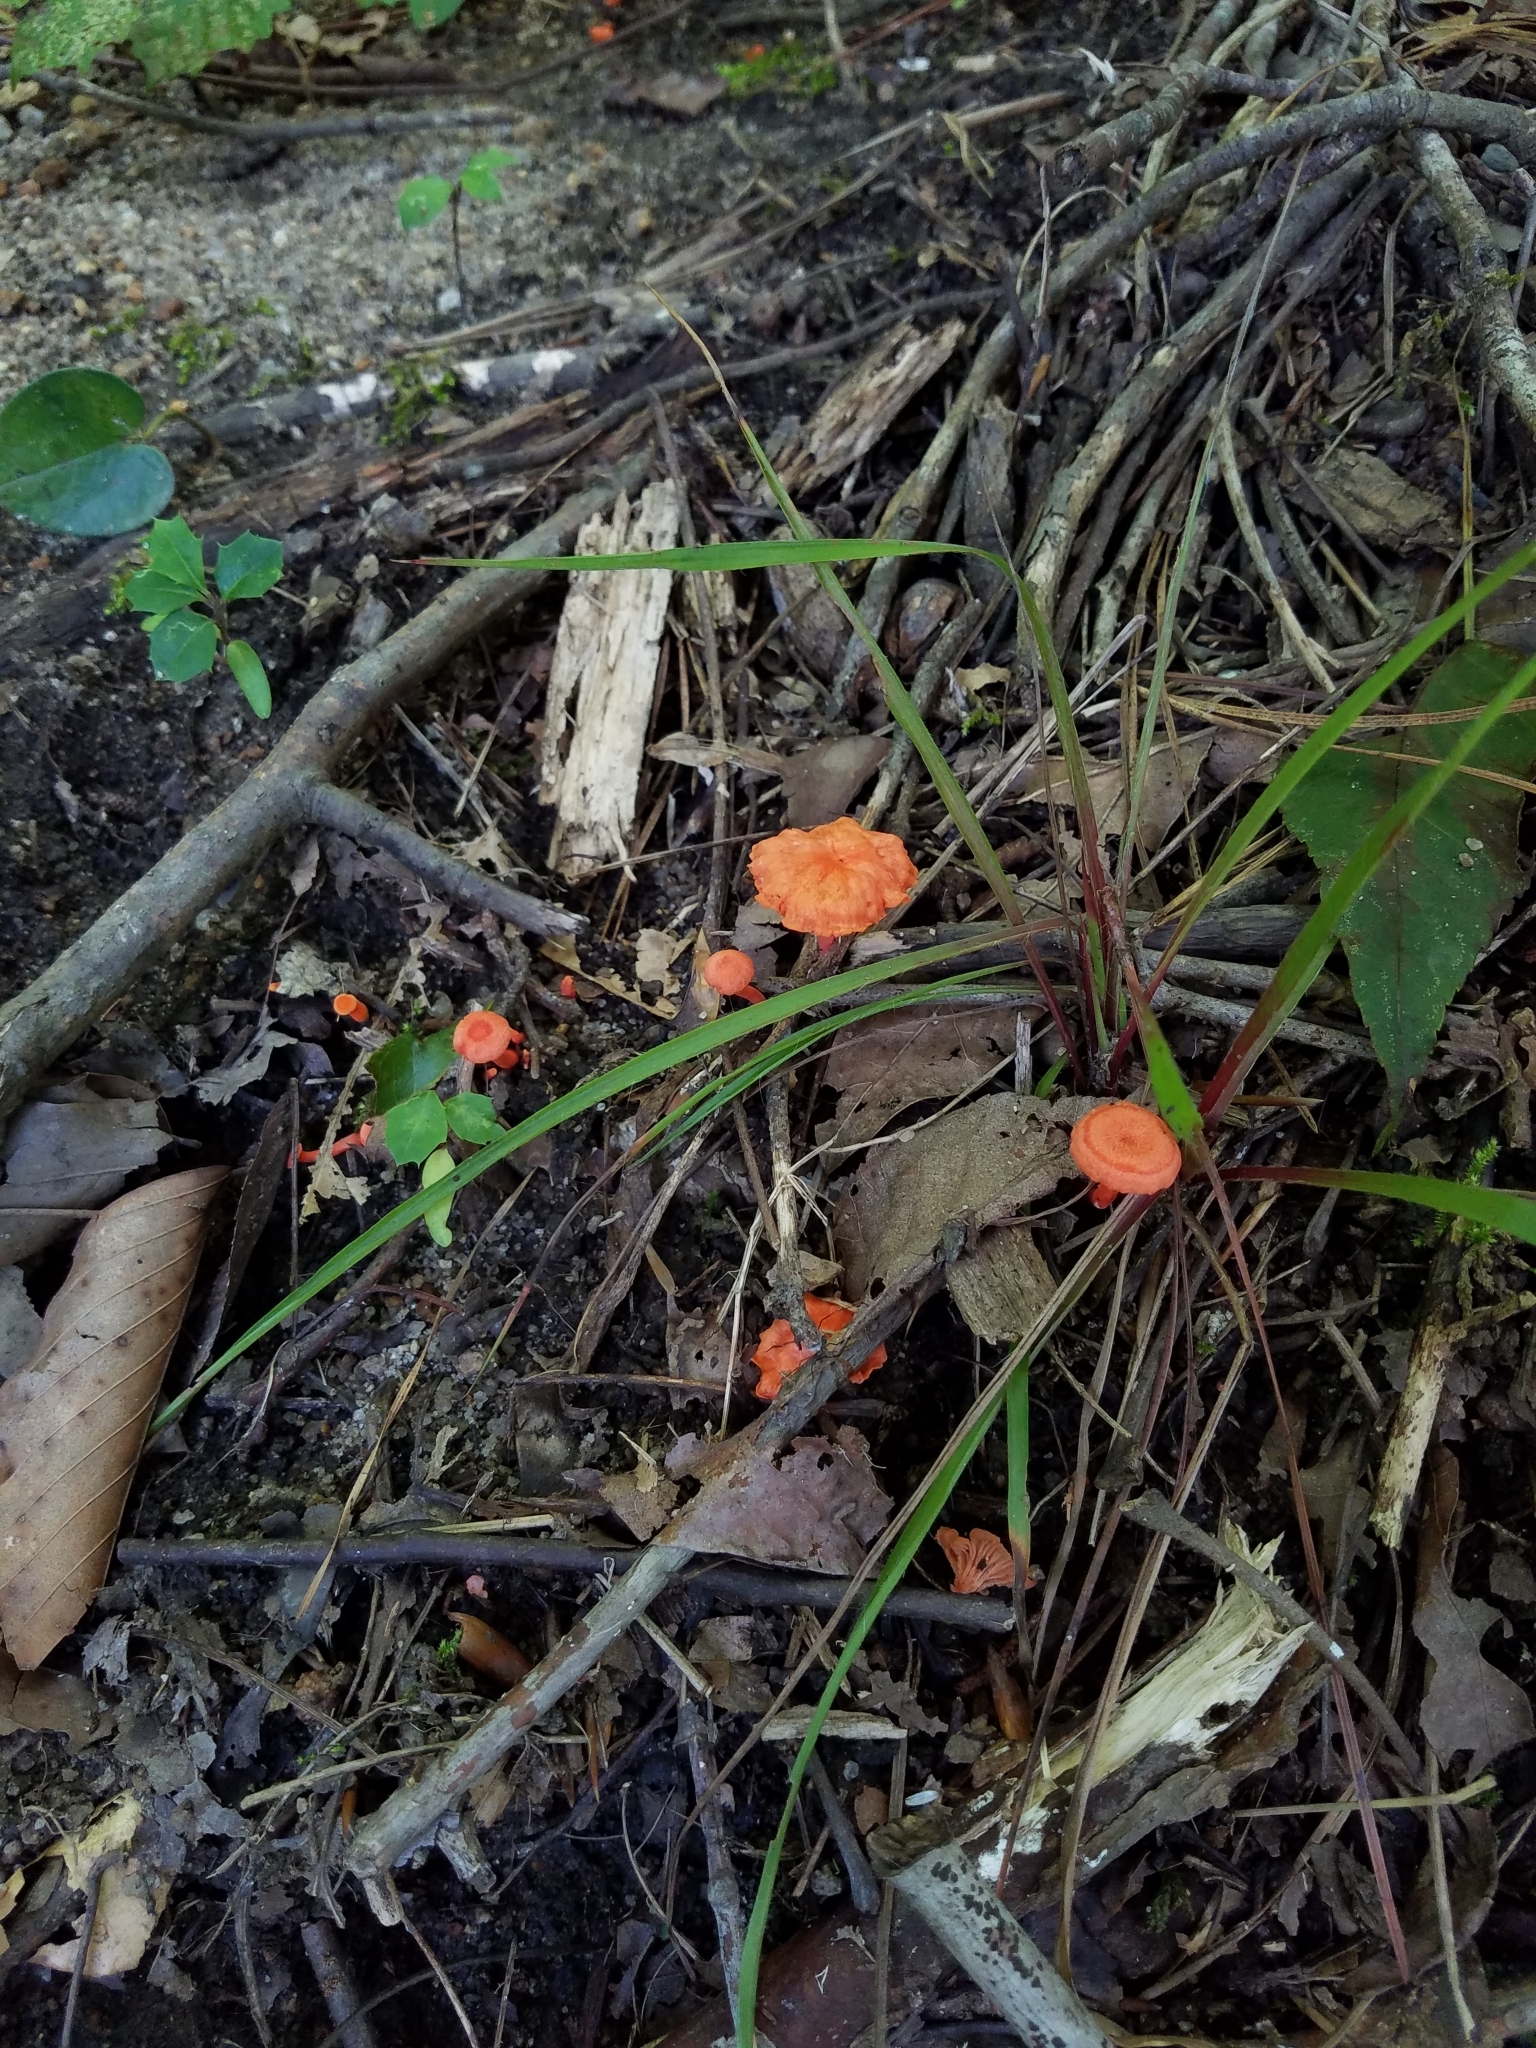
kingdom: Fungi
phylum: Basidiomycota
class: Agaricomycetes
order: Cantharellales
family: Hydnaceae
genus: Cantharellus
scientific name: Cantharellus cinnabarinus
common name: Cinnabar chanterelle
